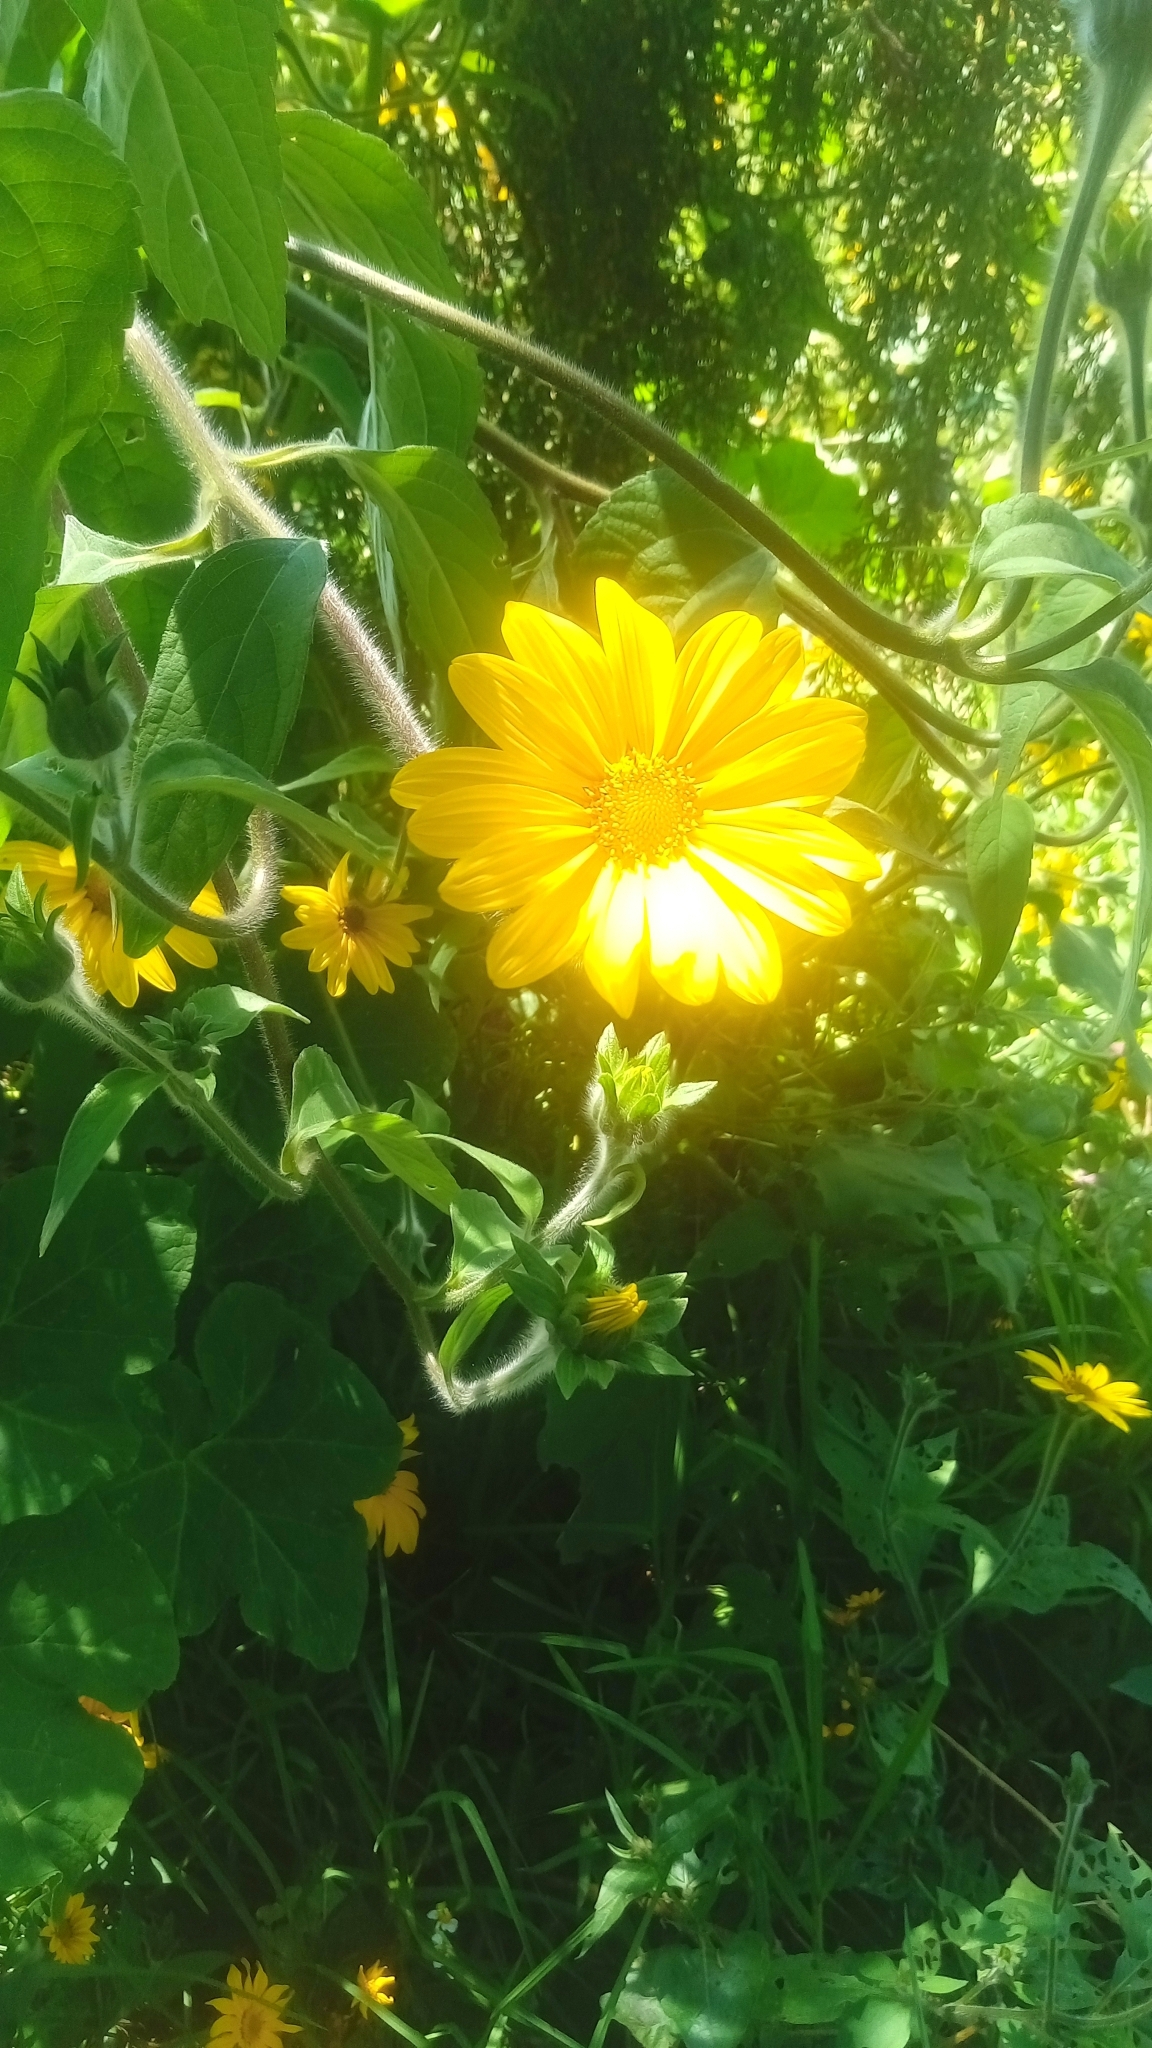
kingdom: Plantae
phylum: Tracheophyta
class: Magnoliopsida
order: Asterales
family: Asteraceae
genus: Tithonia
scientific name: Tithonia tubaeformis
